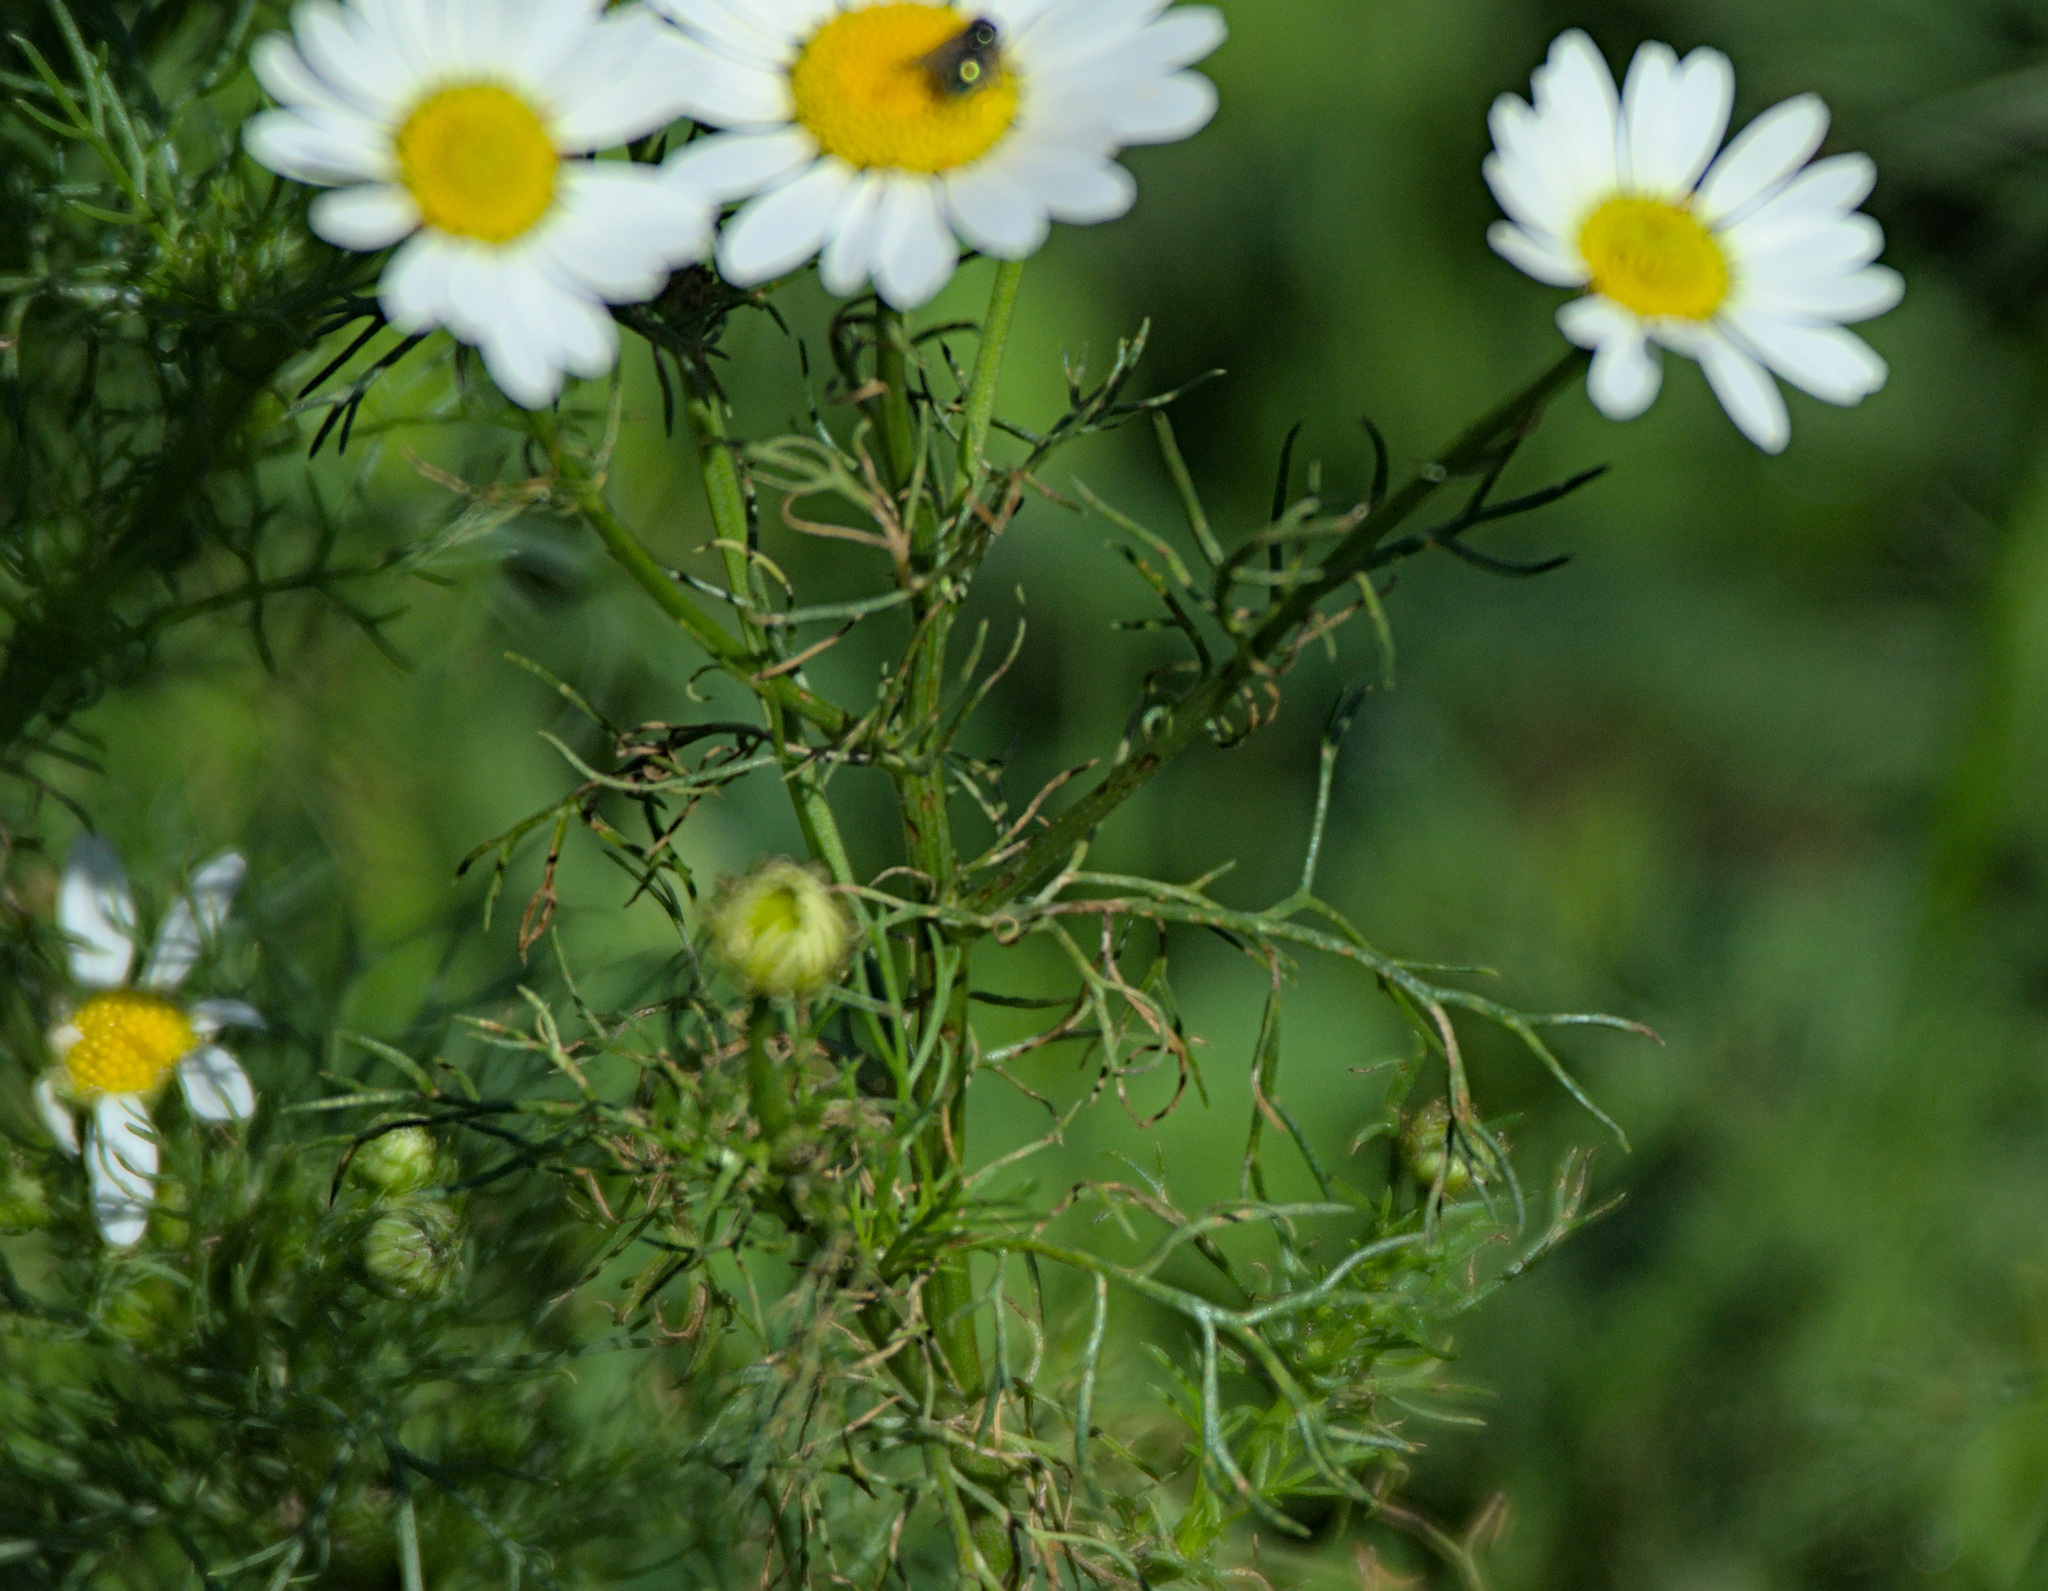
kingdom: Plantae
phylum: Tracheophyta
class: Magnoliopsida
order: Asterales
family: Asteraceae
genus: Tripleurospermum
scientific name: Tripleurospermum inodorum
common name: Scentless mayweed
